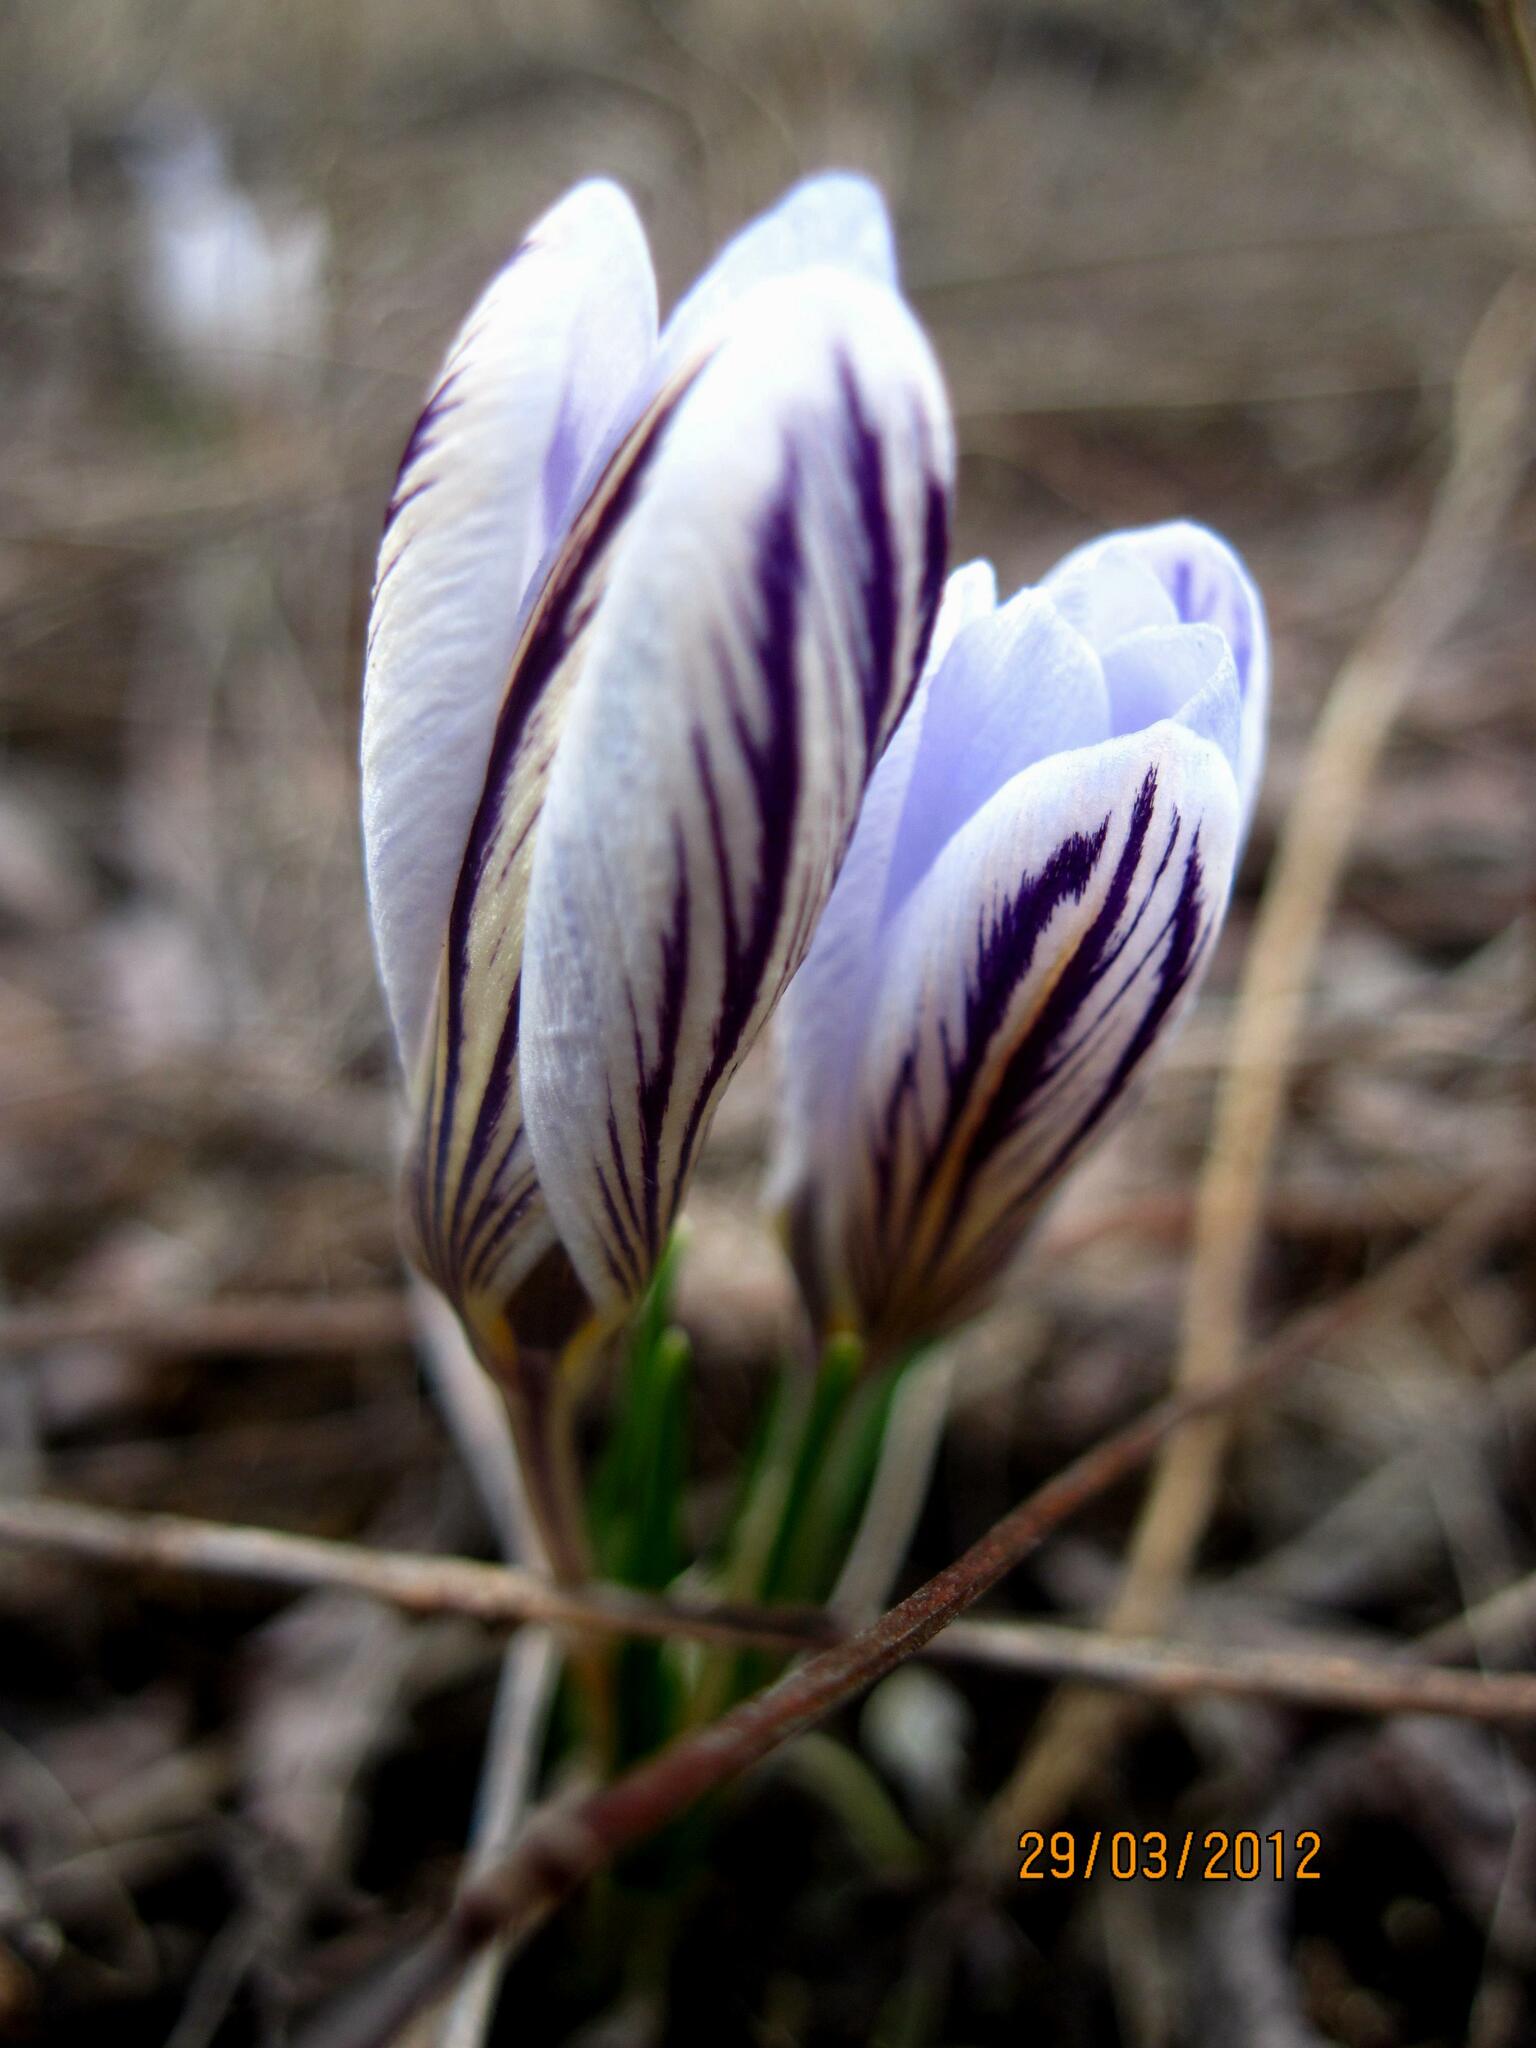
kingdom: Plantae
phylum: Tracheophyta
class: Liliopsida
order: Asparagales
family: Iridaceae
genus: Crocus
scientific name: Crocus reticulatus
